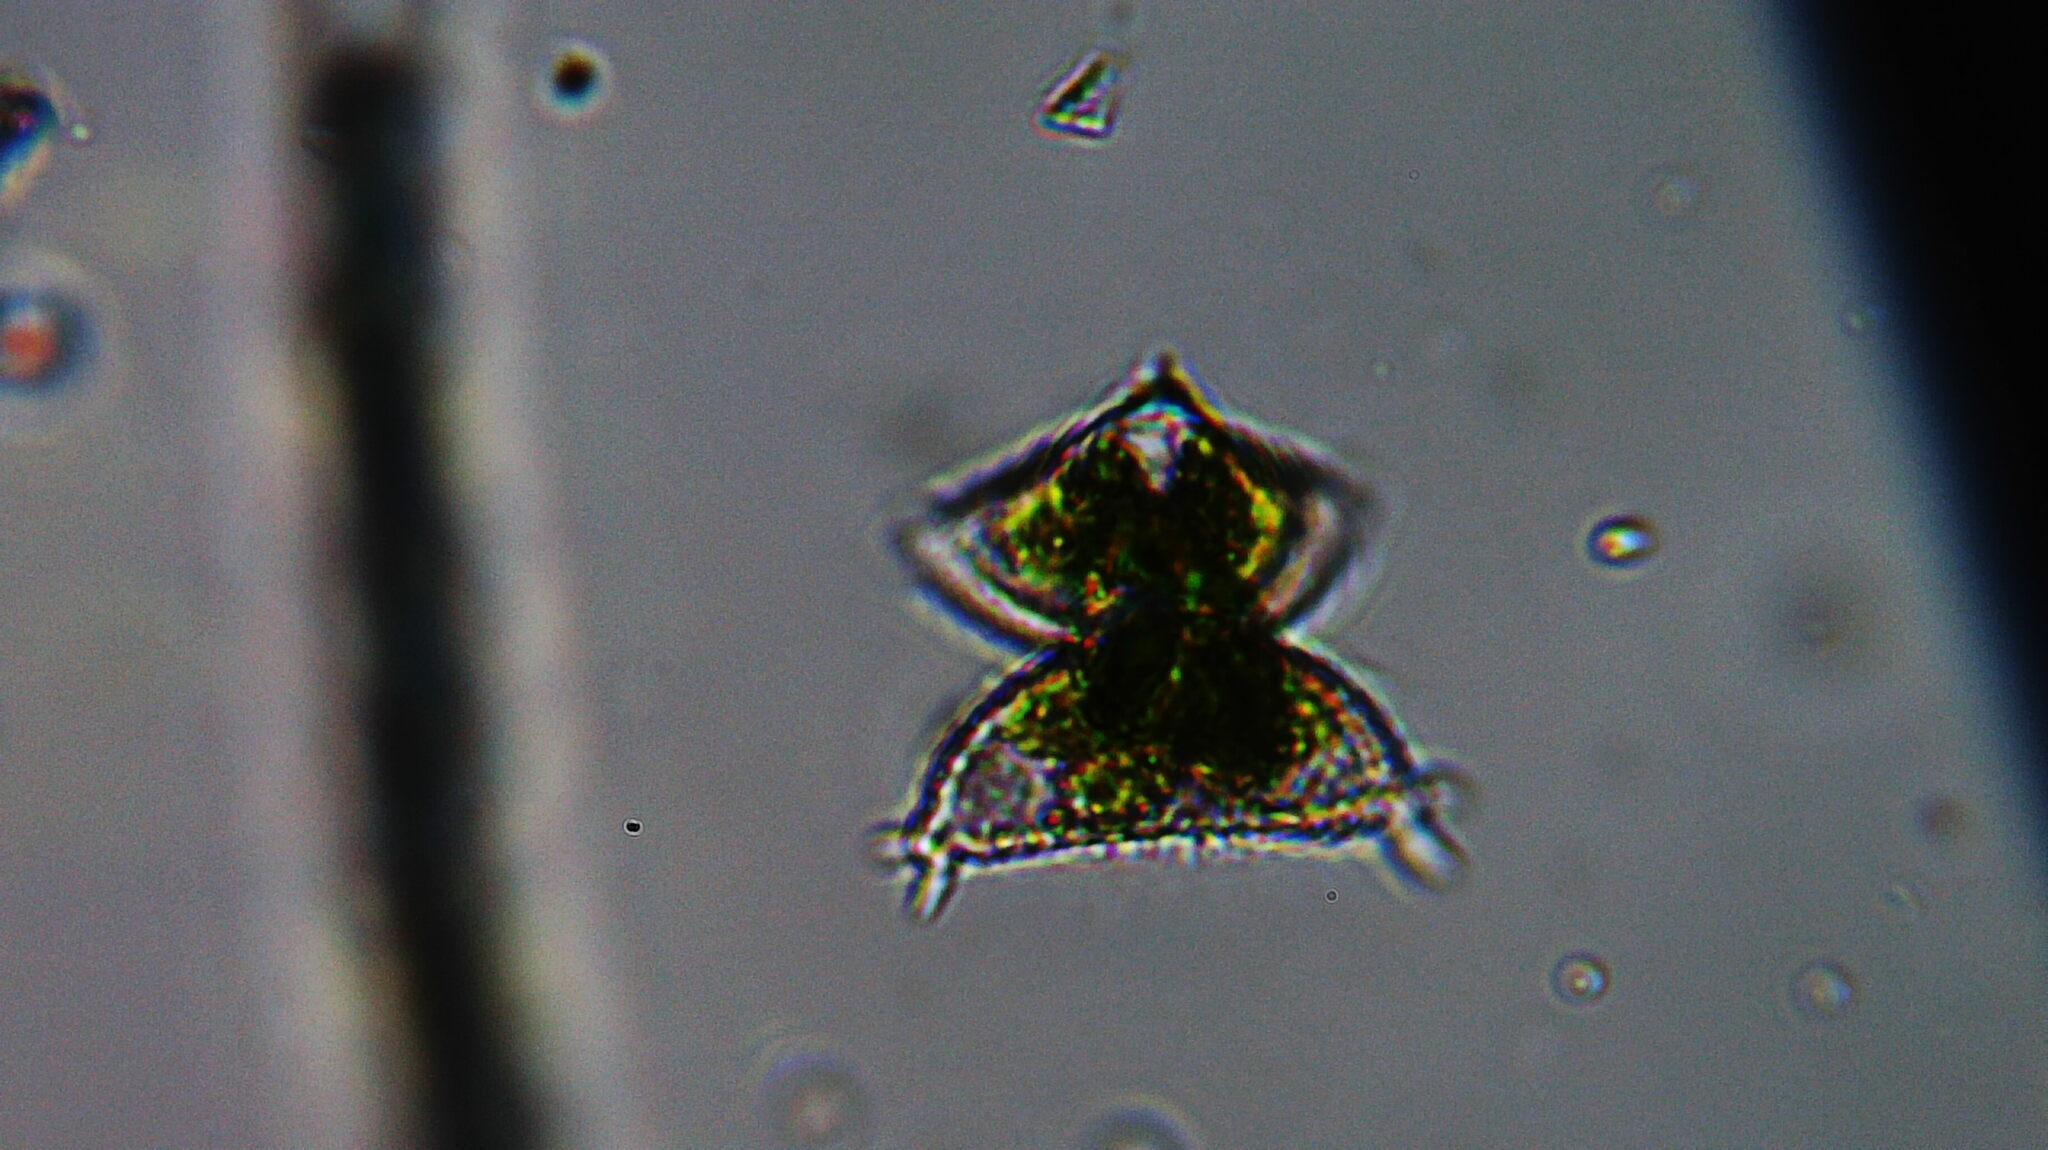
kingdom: Plantae
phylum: Charophyta
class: Zygnematophyceae
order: Zygnematales
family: Desmidiaceae
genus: Staurastrum
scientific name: Staurastrum avicula
